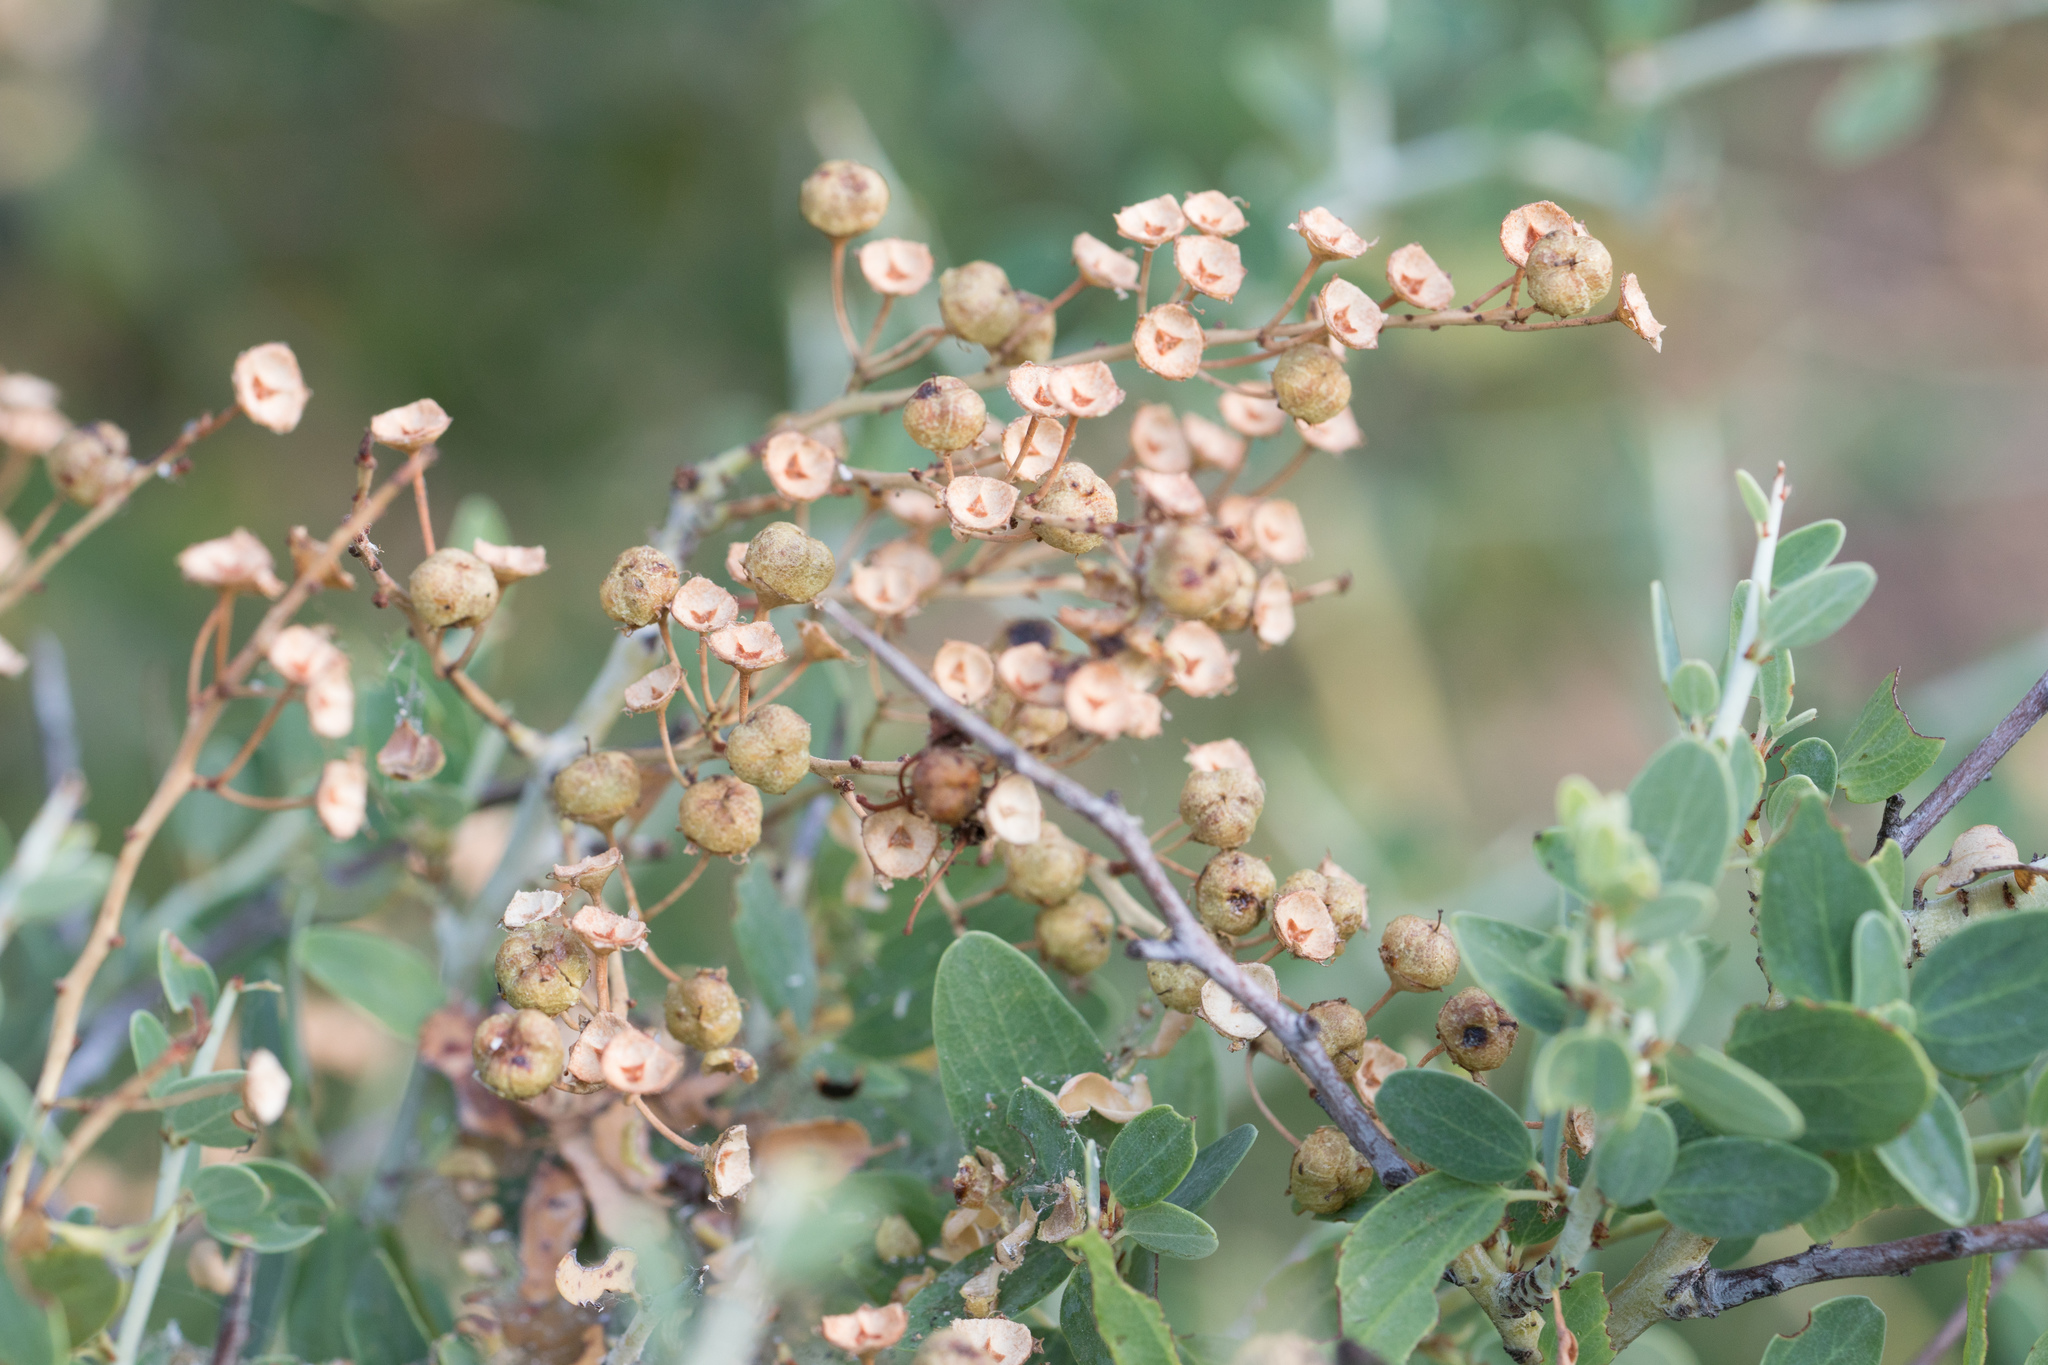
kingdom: Plantae
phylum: Tracheophyta
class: Magnoliopsida
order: Rosales
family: Rhamnaceae
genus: Ceanothus
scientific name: Ceanothus leucodermis
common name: Chaparral whitethorn
